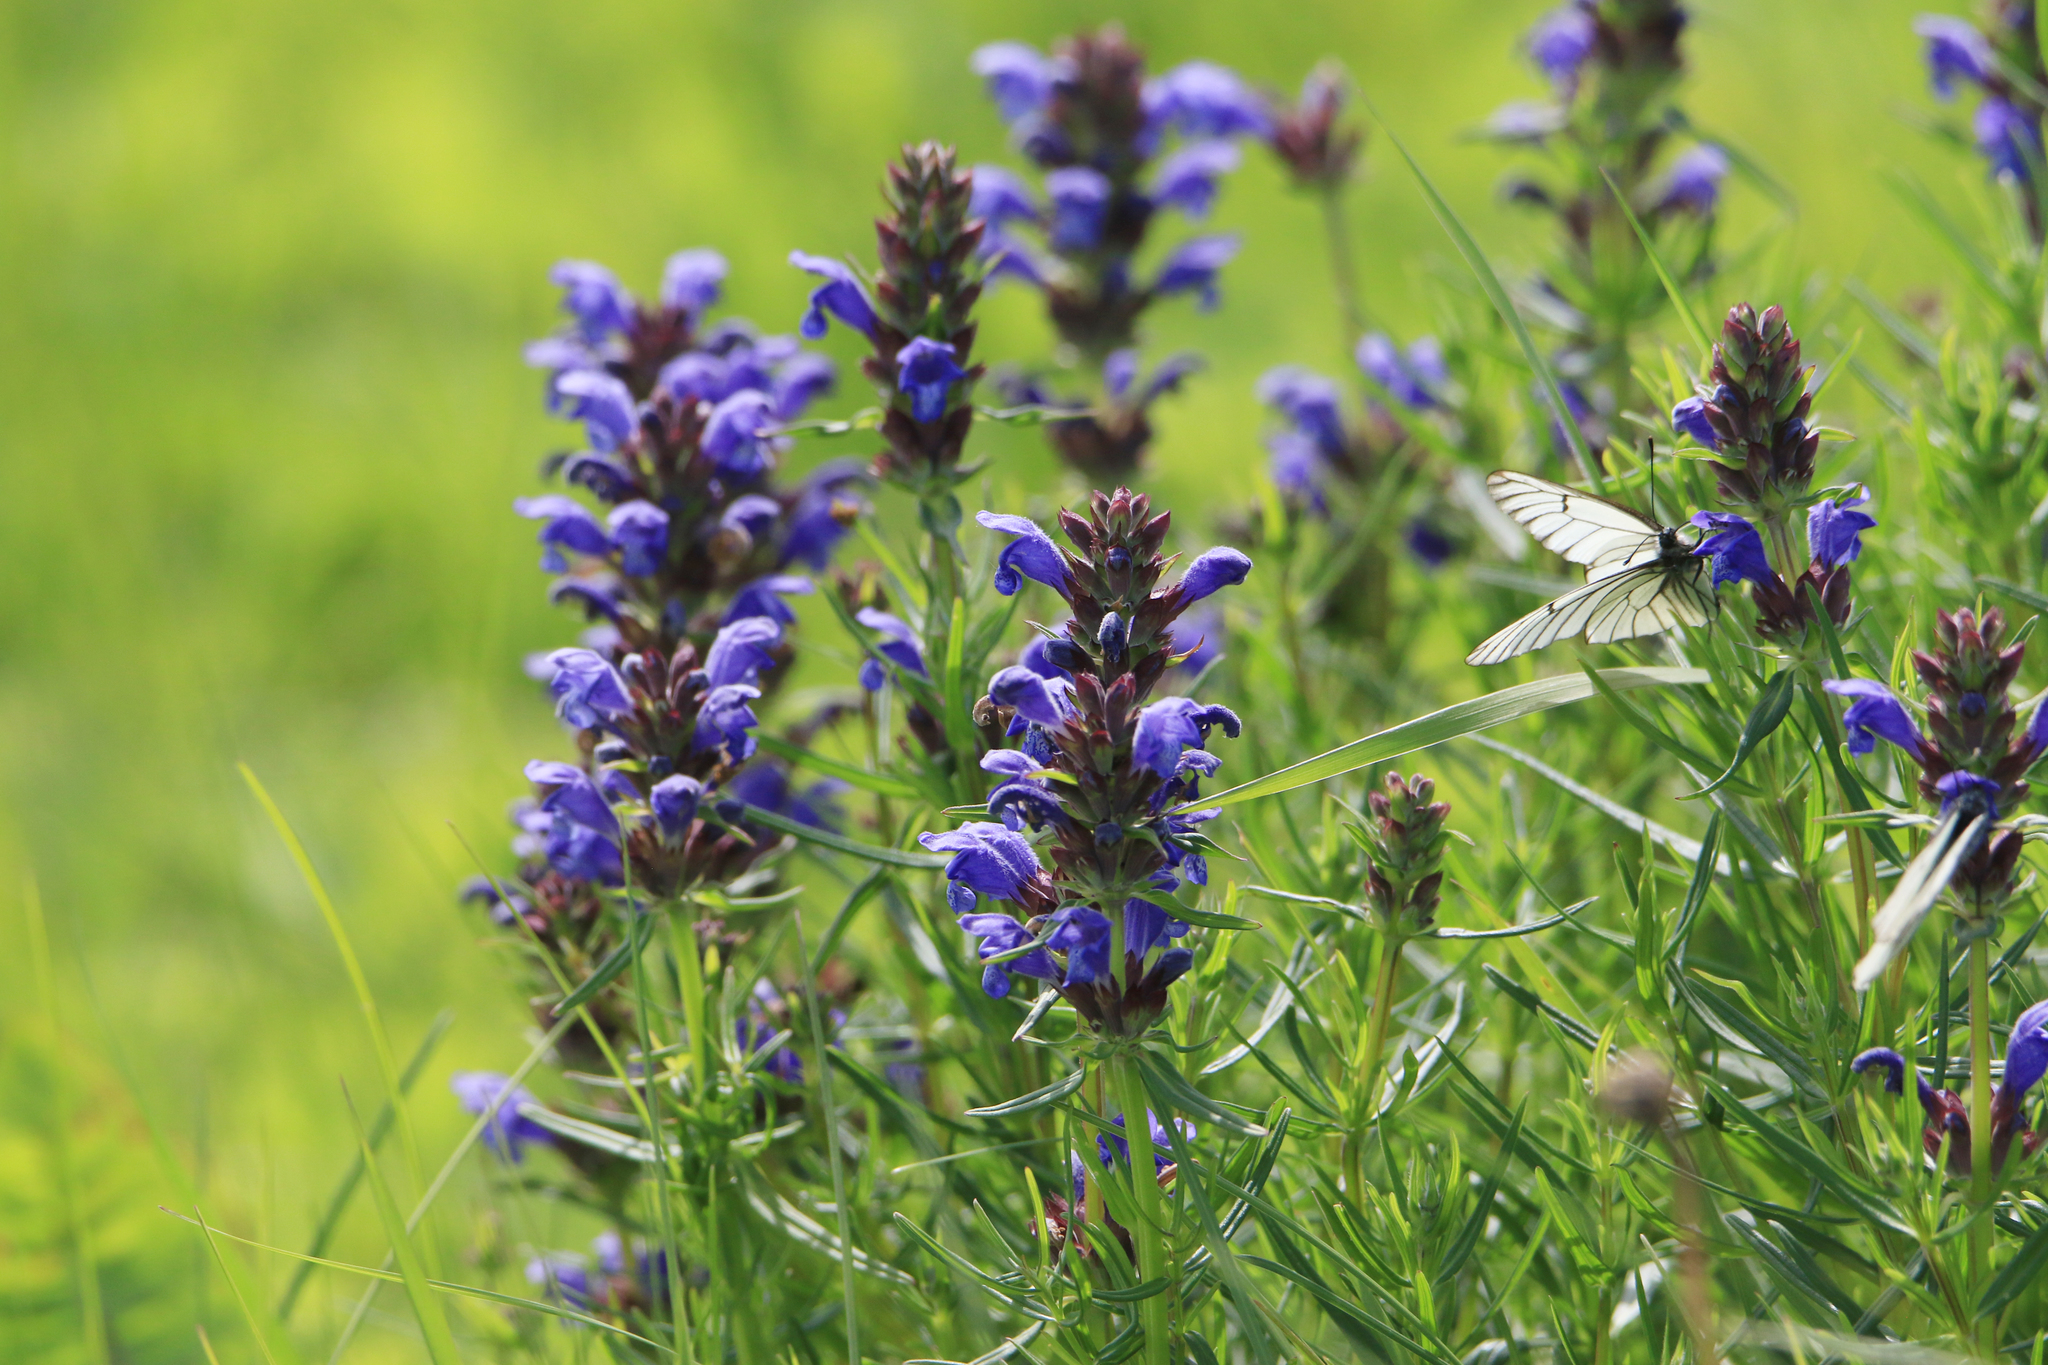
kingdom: Plantae
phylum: Tracheophyta
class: Magnoliopsida
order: Lamiales
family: Lamiaceae
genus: Dracocephalum
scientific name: Dracocephalum ruyschiana
